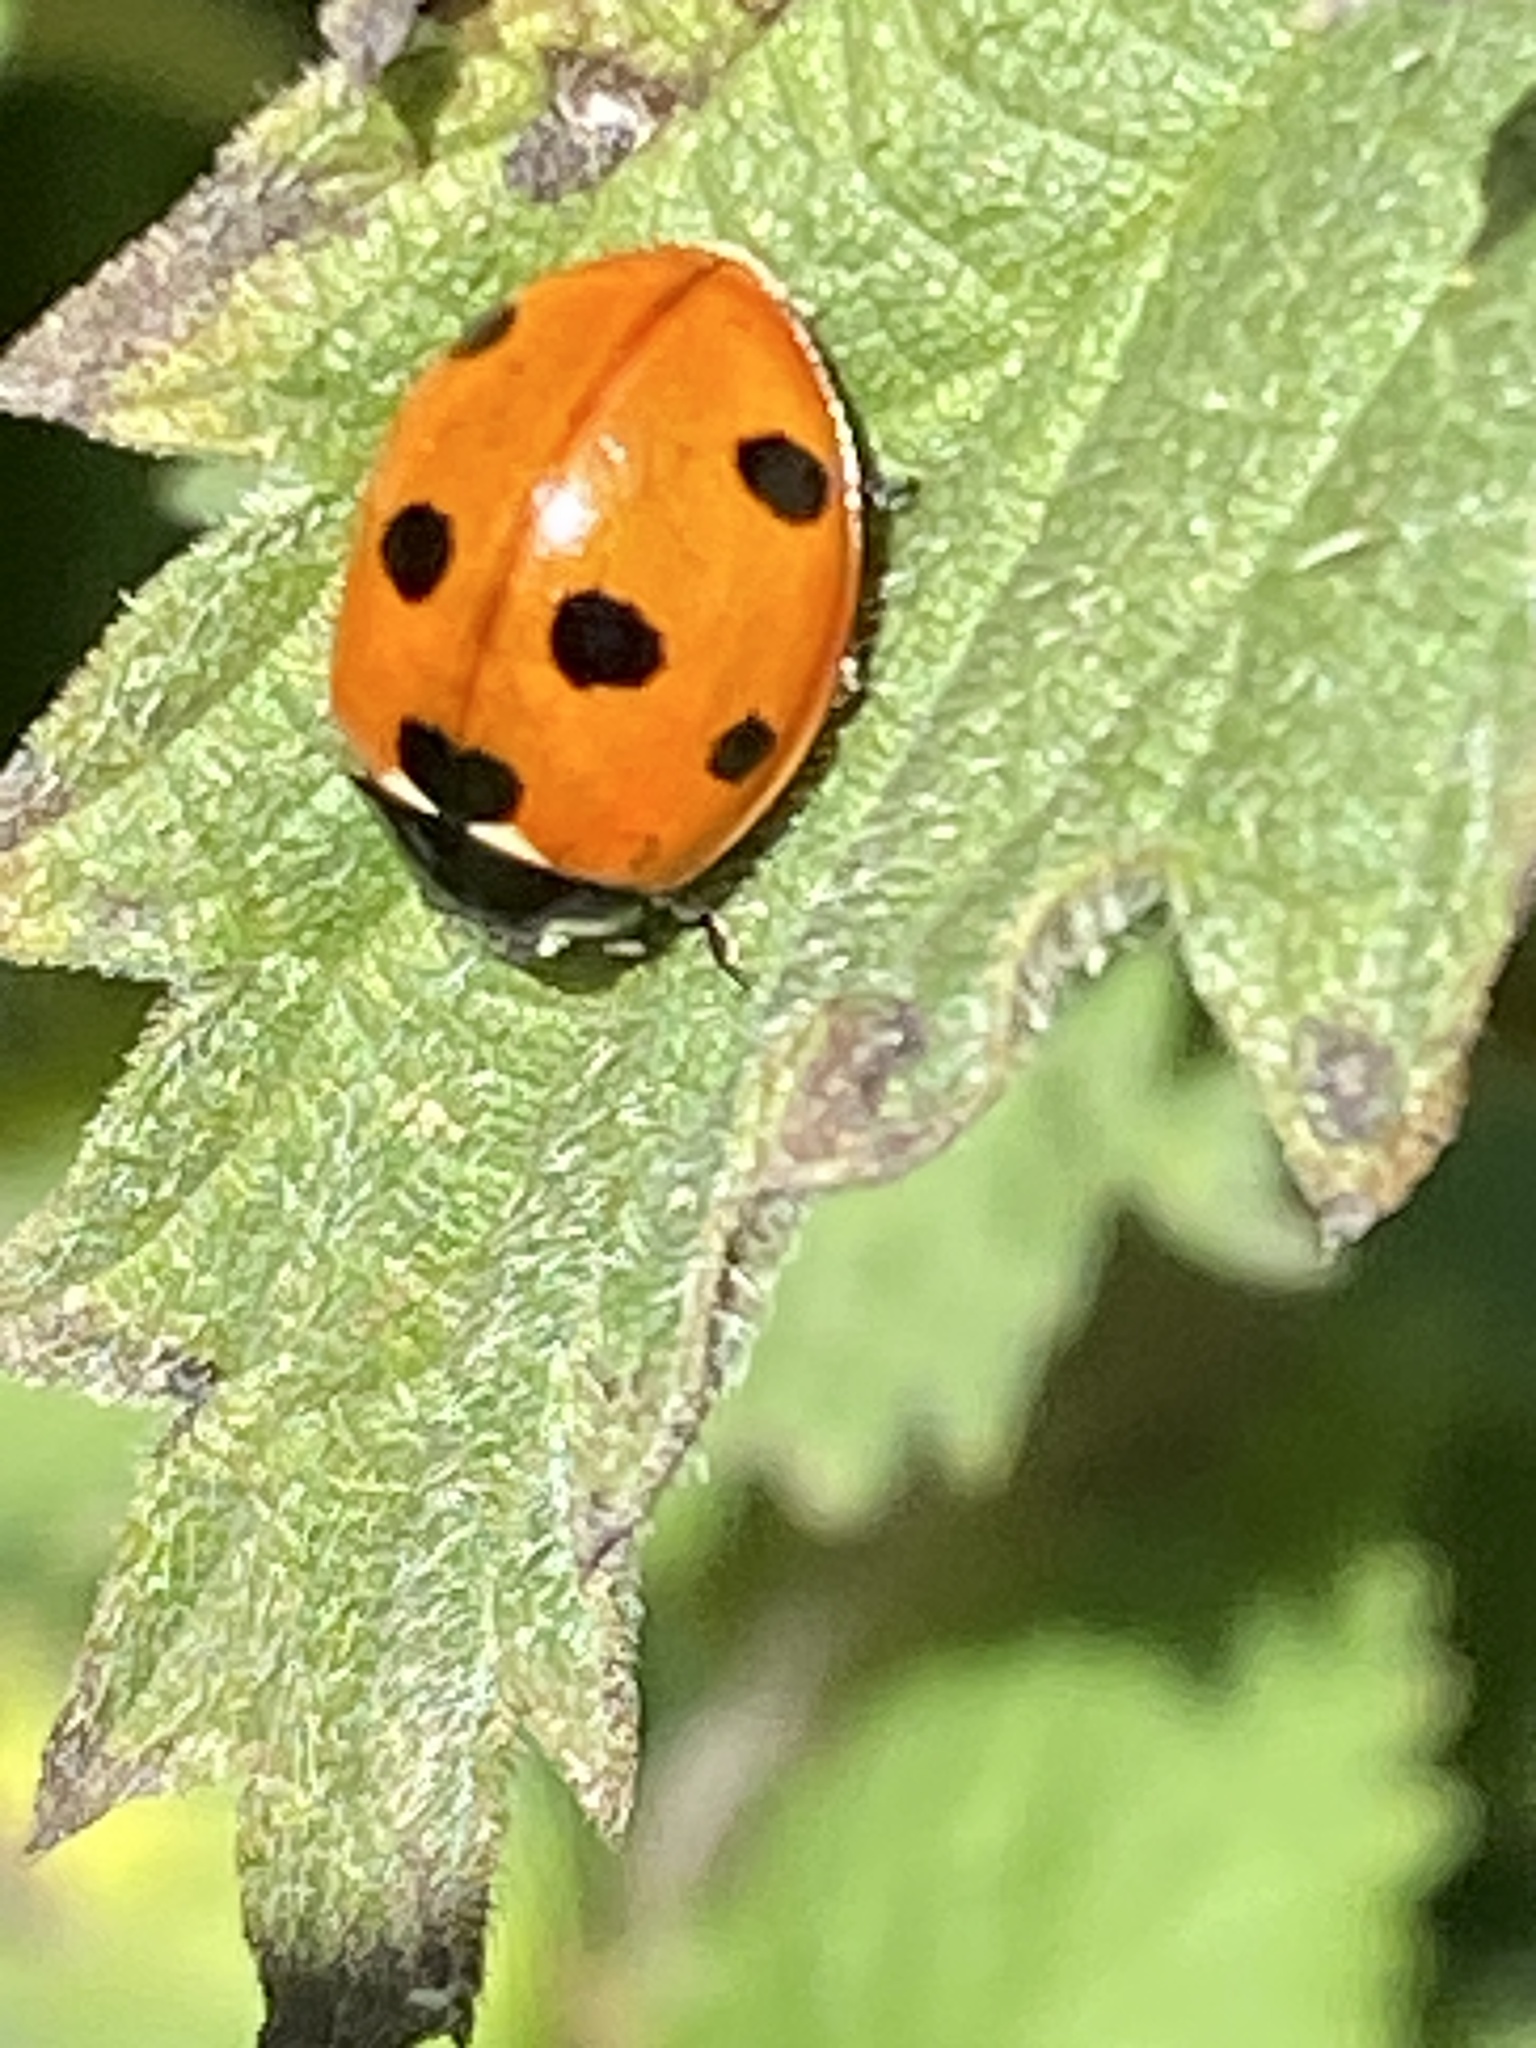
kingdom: Animalia
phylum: Arthropoda
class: Insecta
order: Coleoptera
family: Coccinellidae
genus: Coccinella
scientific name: Coccinella septempunctata
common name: Sevenspotted lady beetle
